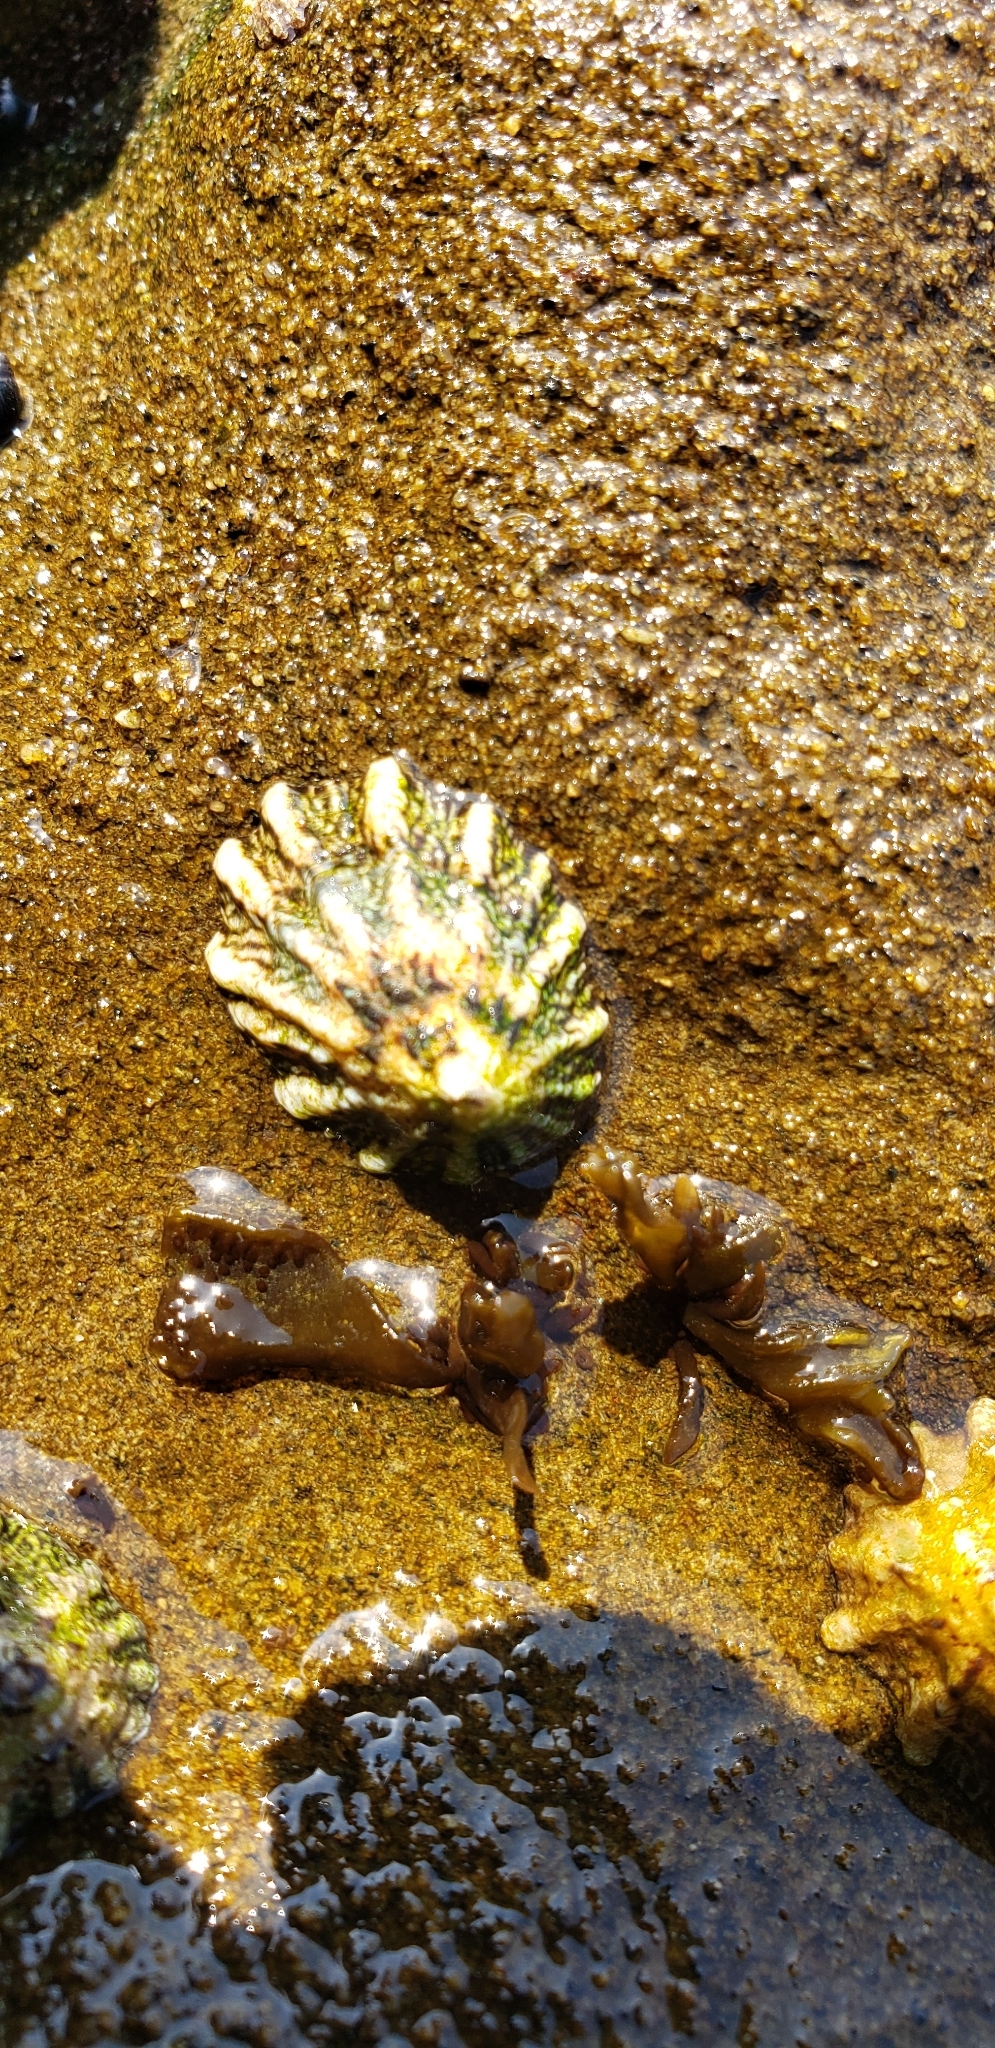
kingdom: Animalia
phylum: Mollusca
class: Gastropoda
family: Lottiidae
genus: Lottia
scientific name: Lottia scabra
